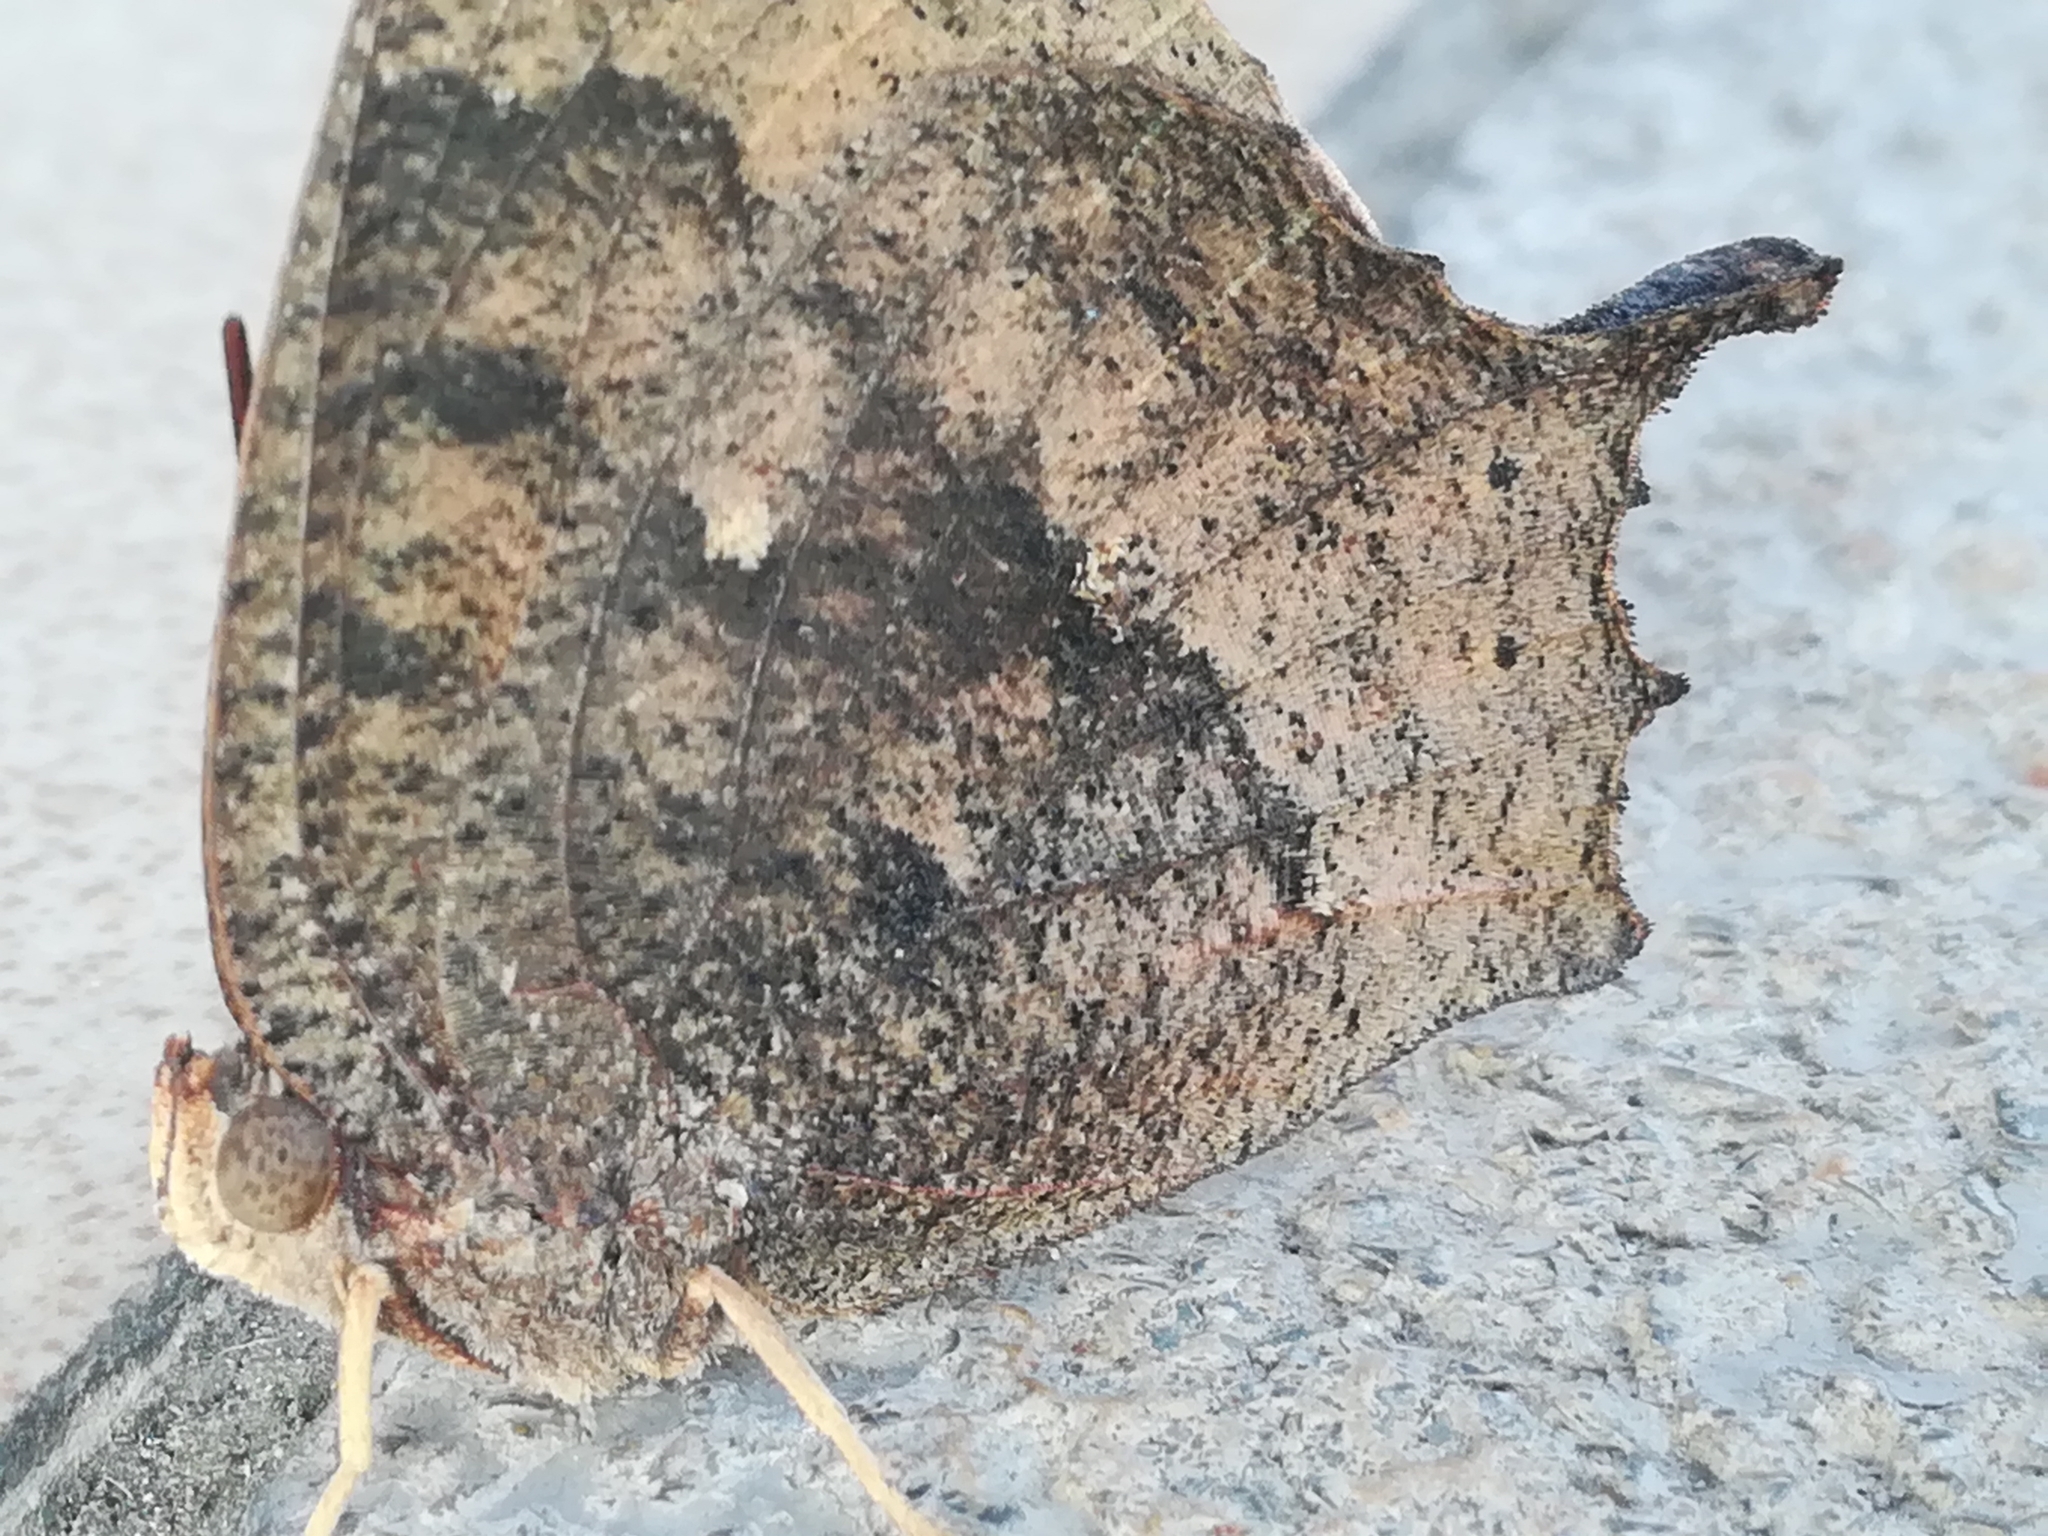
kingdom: Animalia
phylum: Arthropoda
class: Insecta
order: Lepidoptera
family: Nymphalidae
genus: Anaea
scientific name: Anaea aidea
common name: Tropical leafwing
